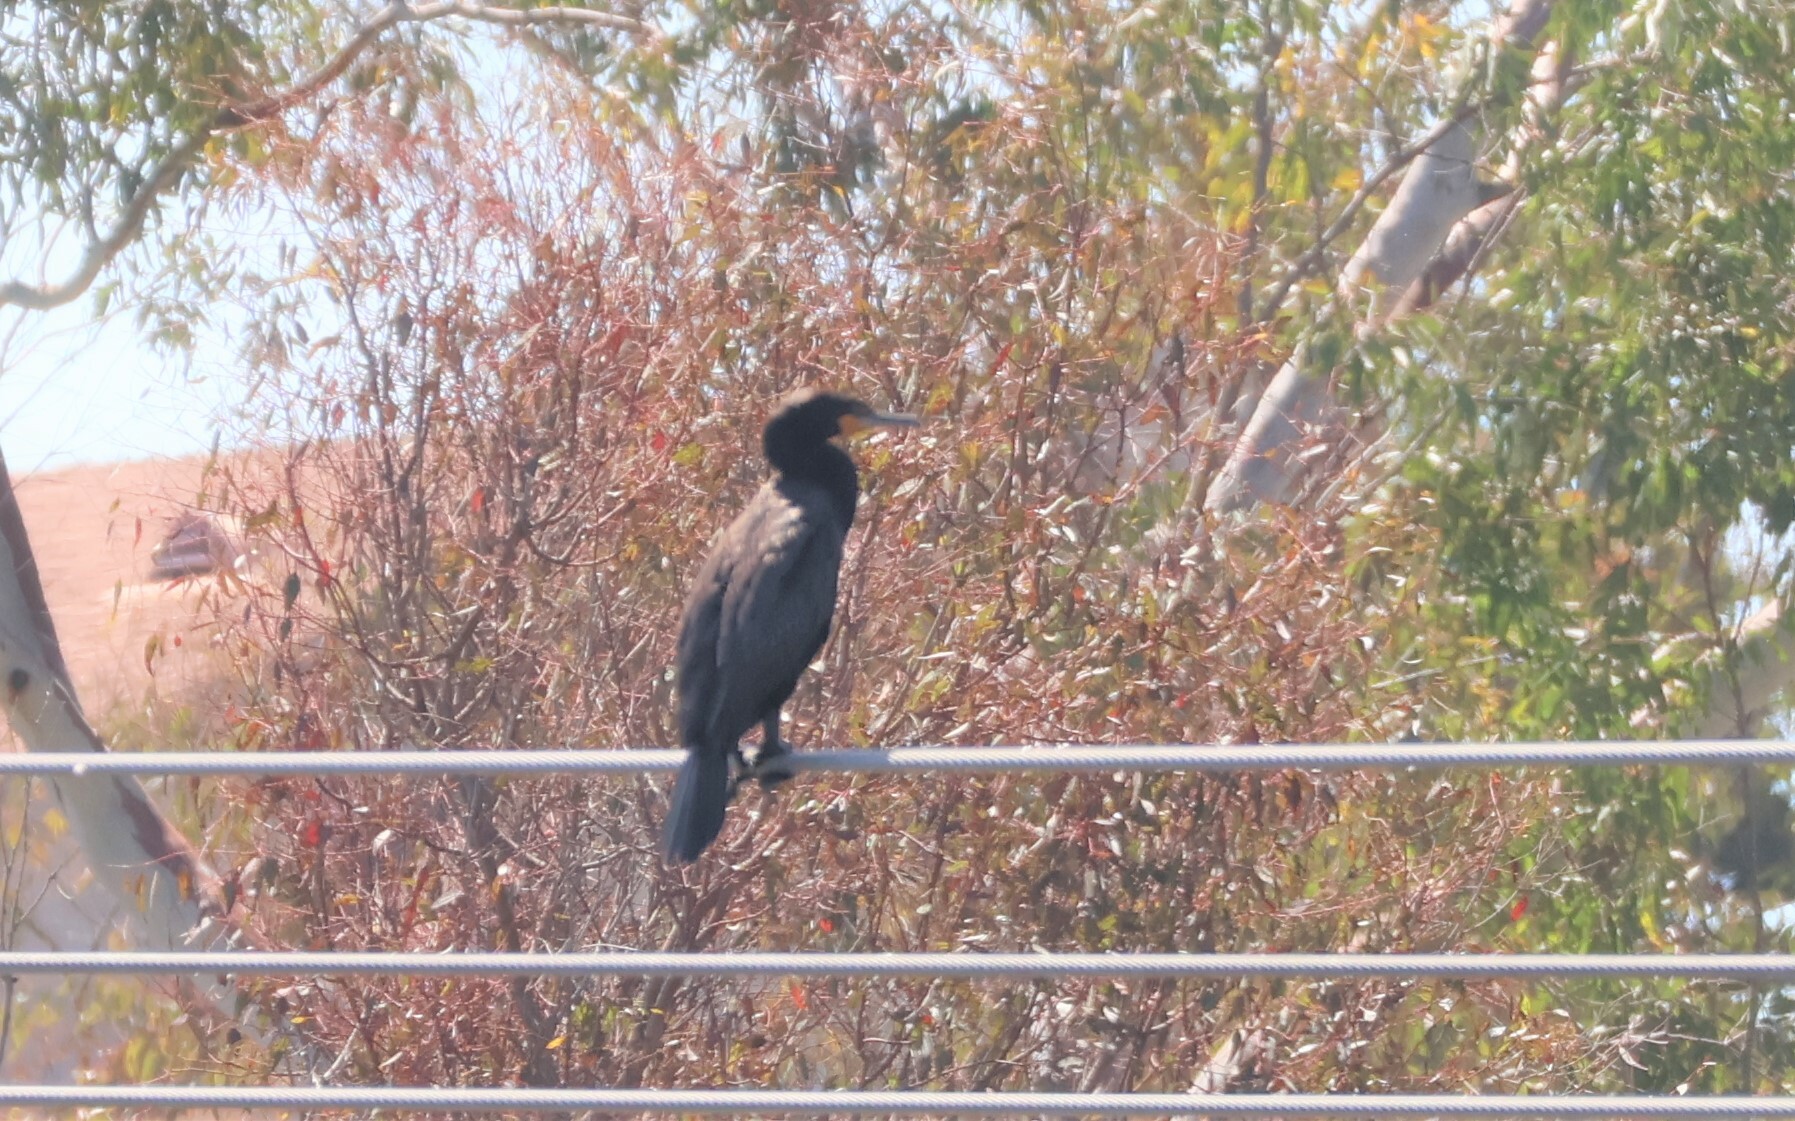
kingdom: Animalia
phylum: Chordata
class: Aves
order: Suliformes
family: Phalacrocoracidae
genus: Phalacrocorax
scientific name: Phalacrocorax auritus
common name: Double-crested cormorant
